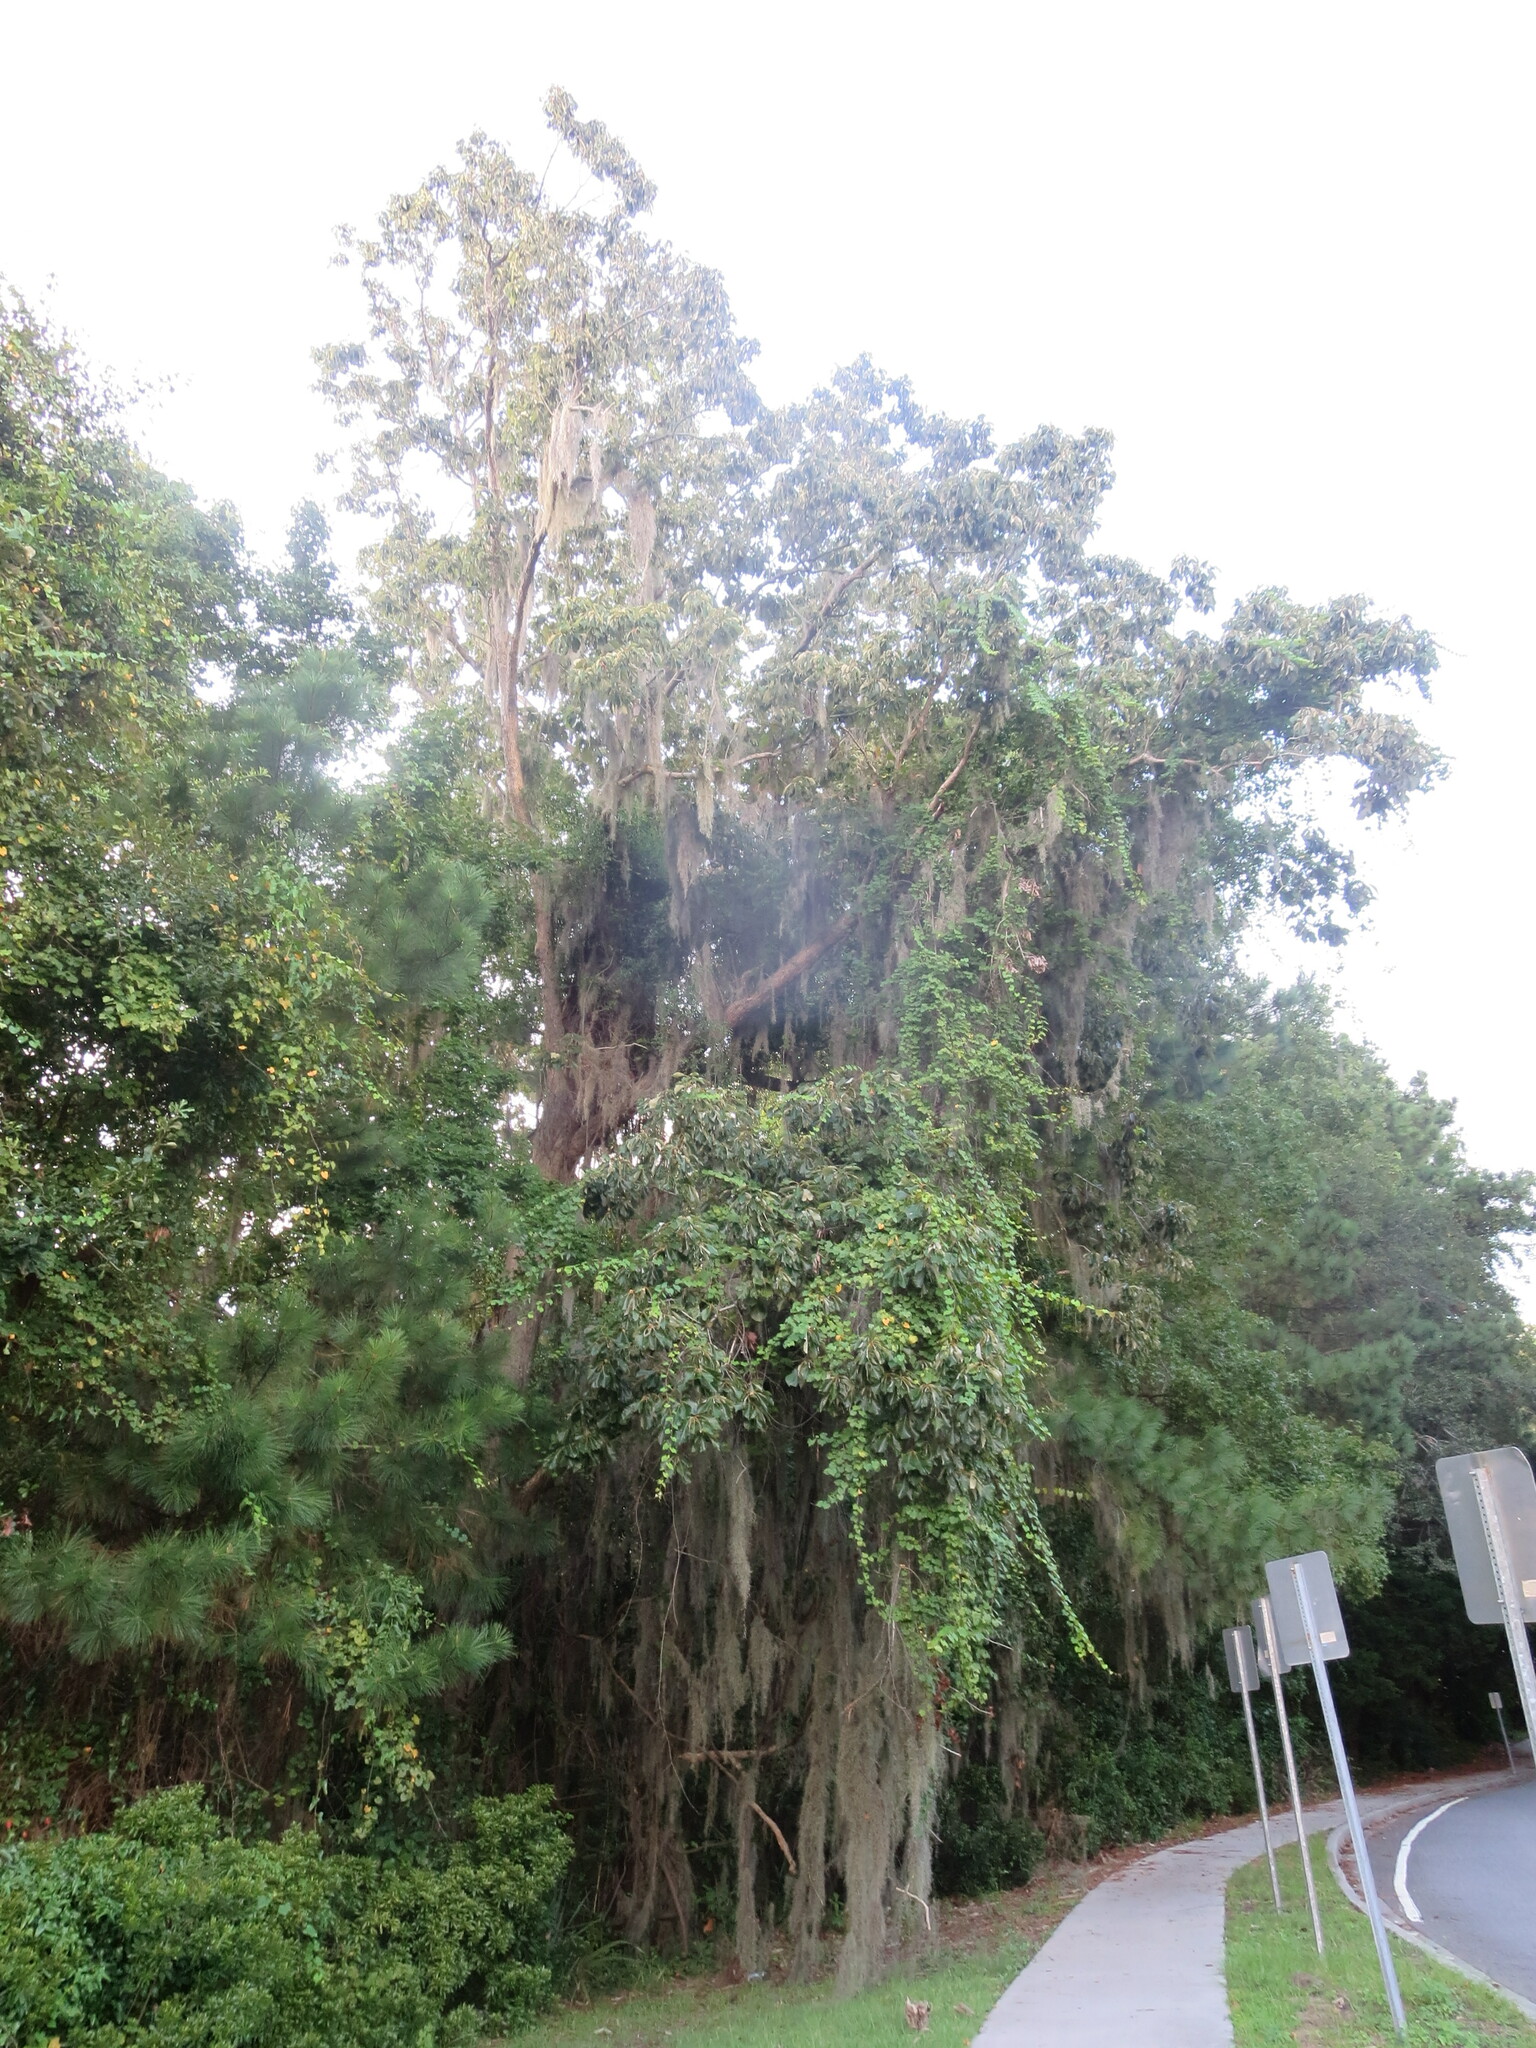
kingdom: Plantae
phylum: Tracheophyta
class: Magnoliopsida
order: Fagales
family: Fagaceae
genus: Quercus
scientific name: Quercus michauxii
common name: Swamp chestnut oak
